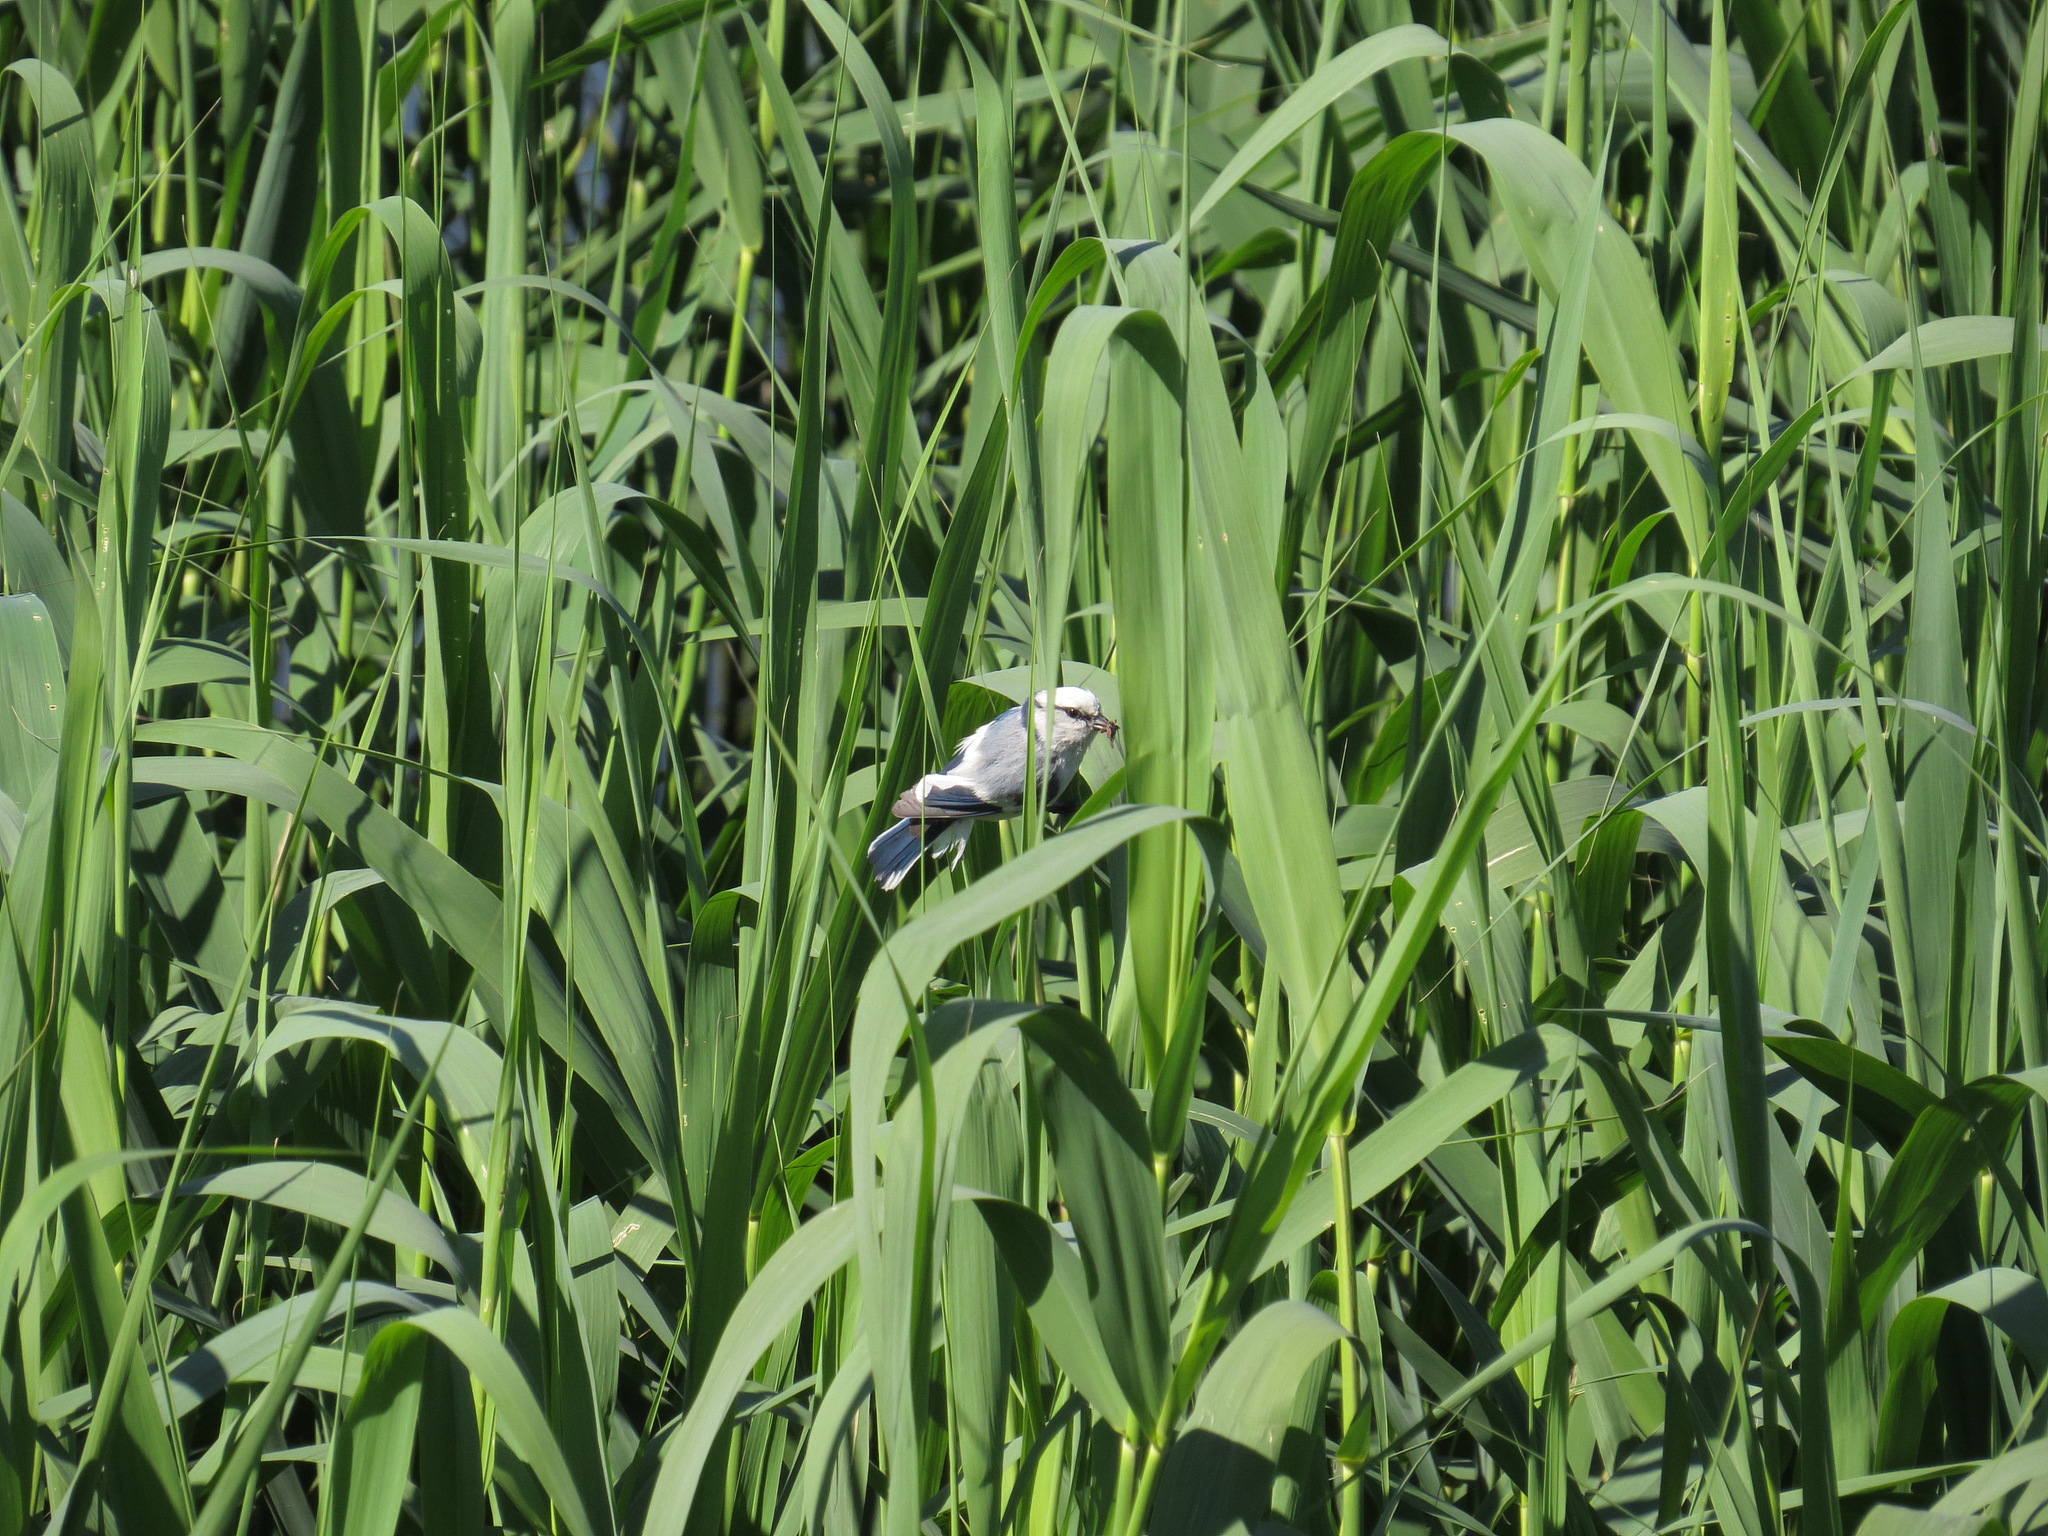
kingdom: Animalia
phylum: Chordata
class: Aves
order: Passeriformes
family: Paridae
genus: Cyanistes
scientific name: Cyanistes cyanus
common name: Azure tit
